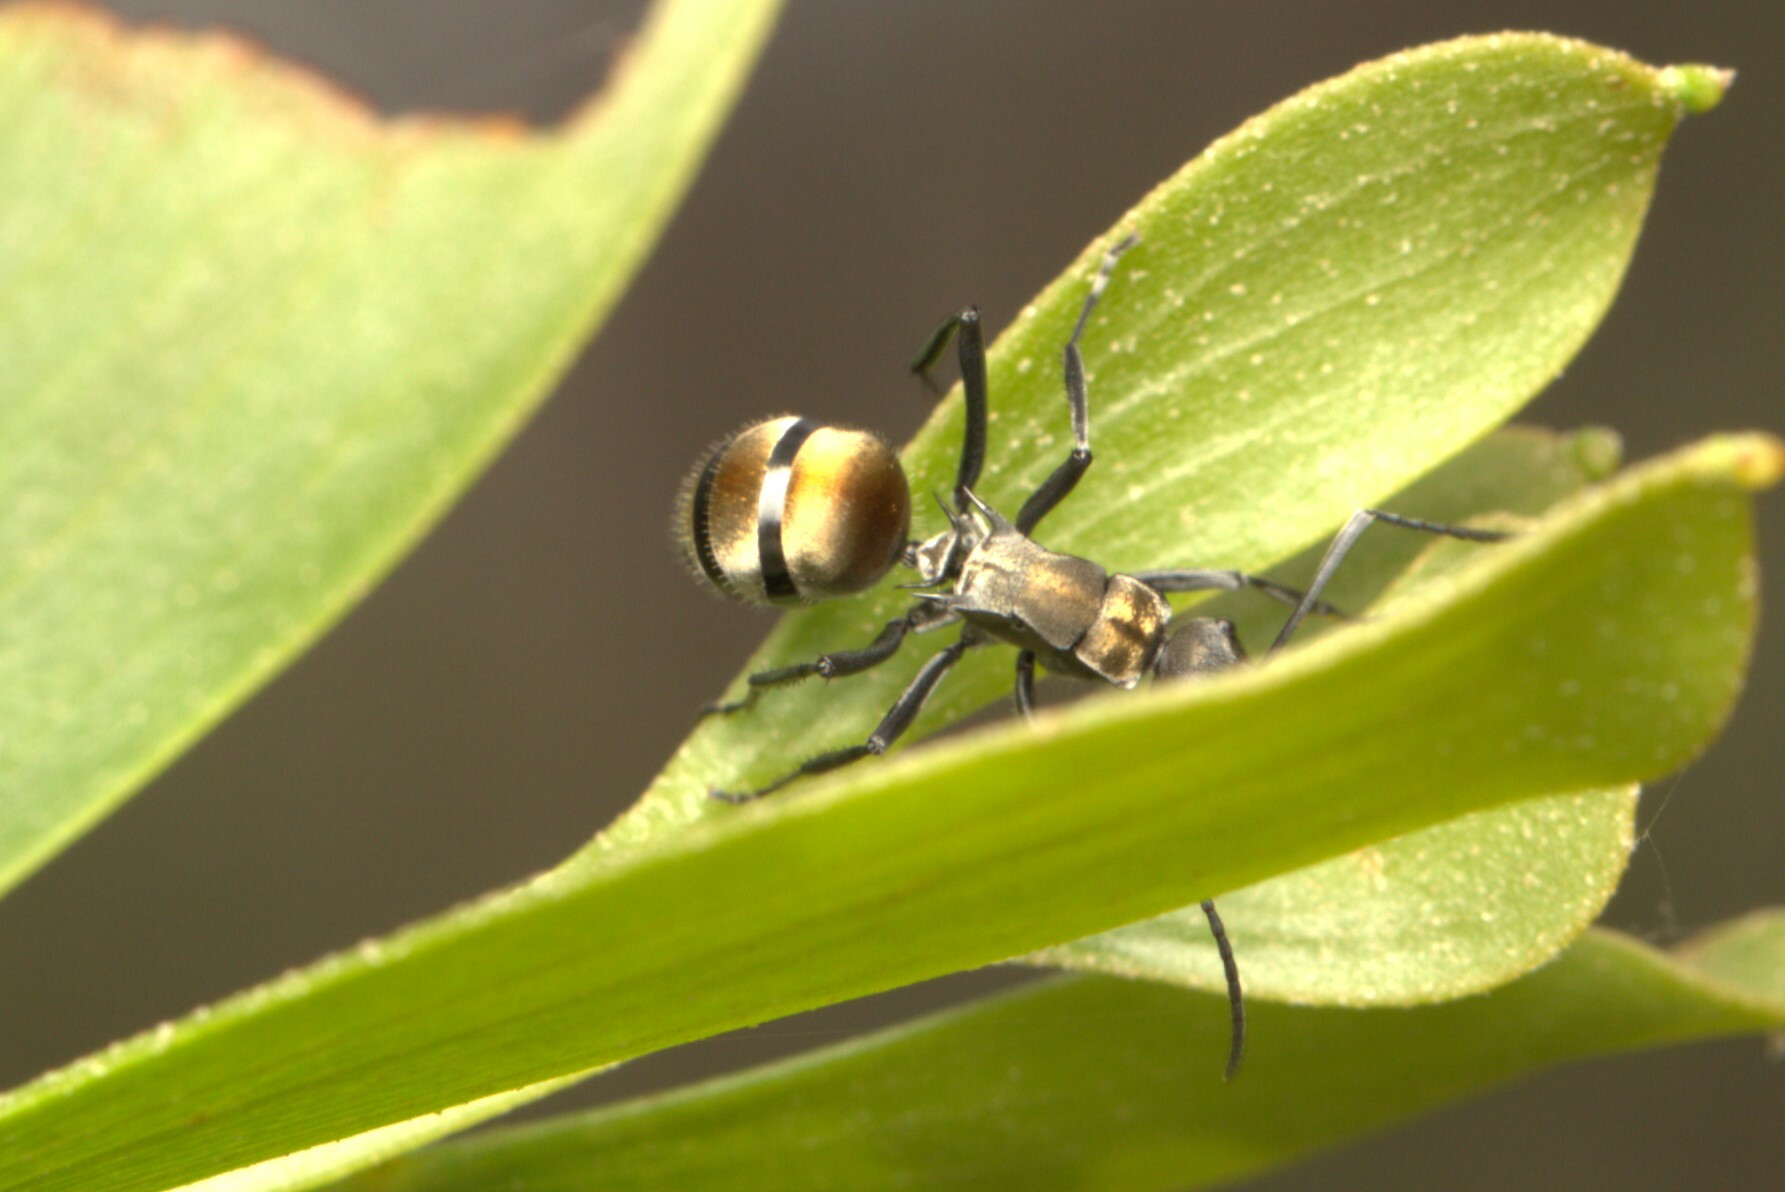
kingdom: Animalia
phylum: Arthropoda
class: Insecta
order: Hymenoptera
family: Formicidae
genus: Polyrhachis
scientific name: Polyrhachis ammon
